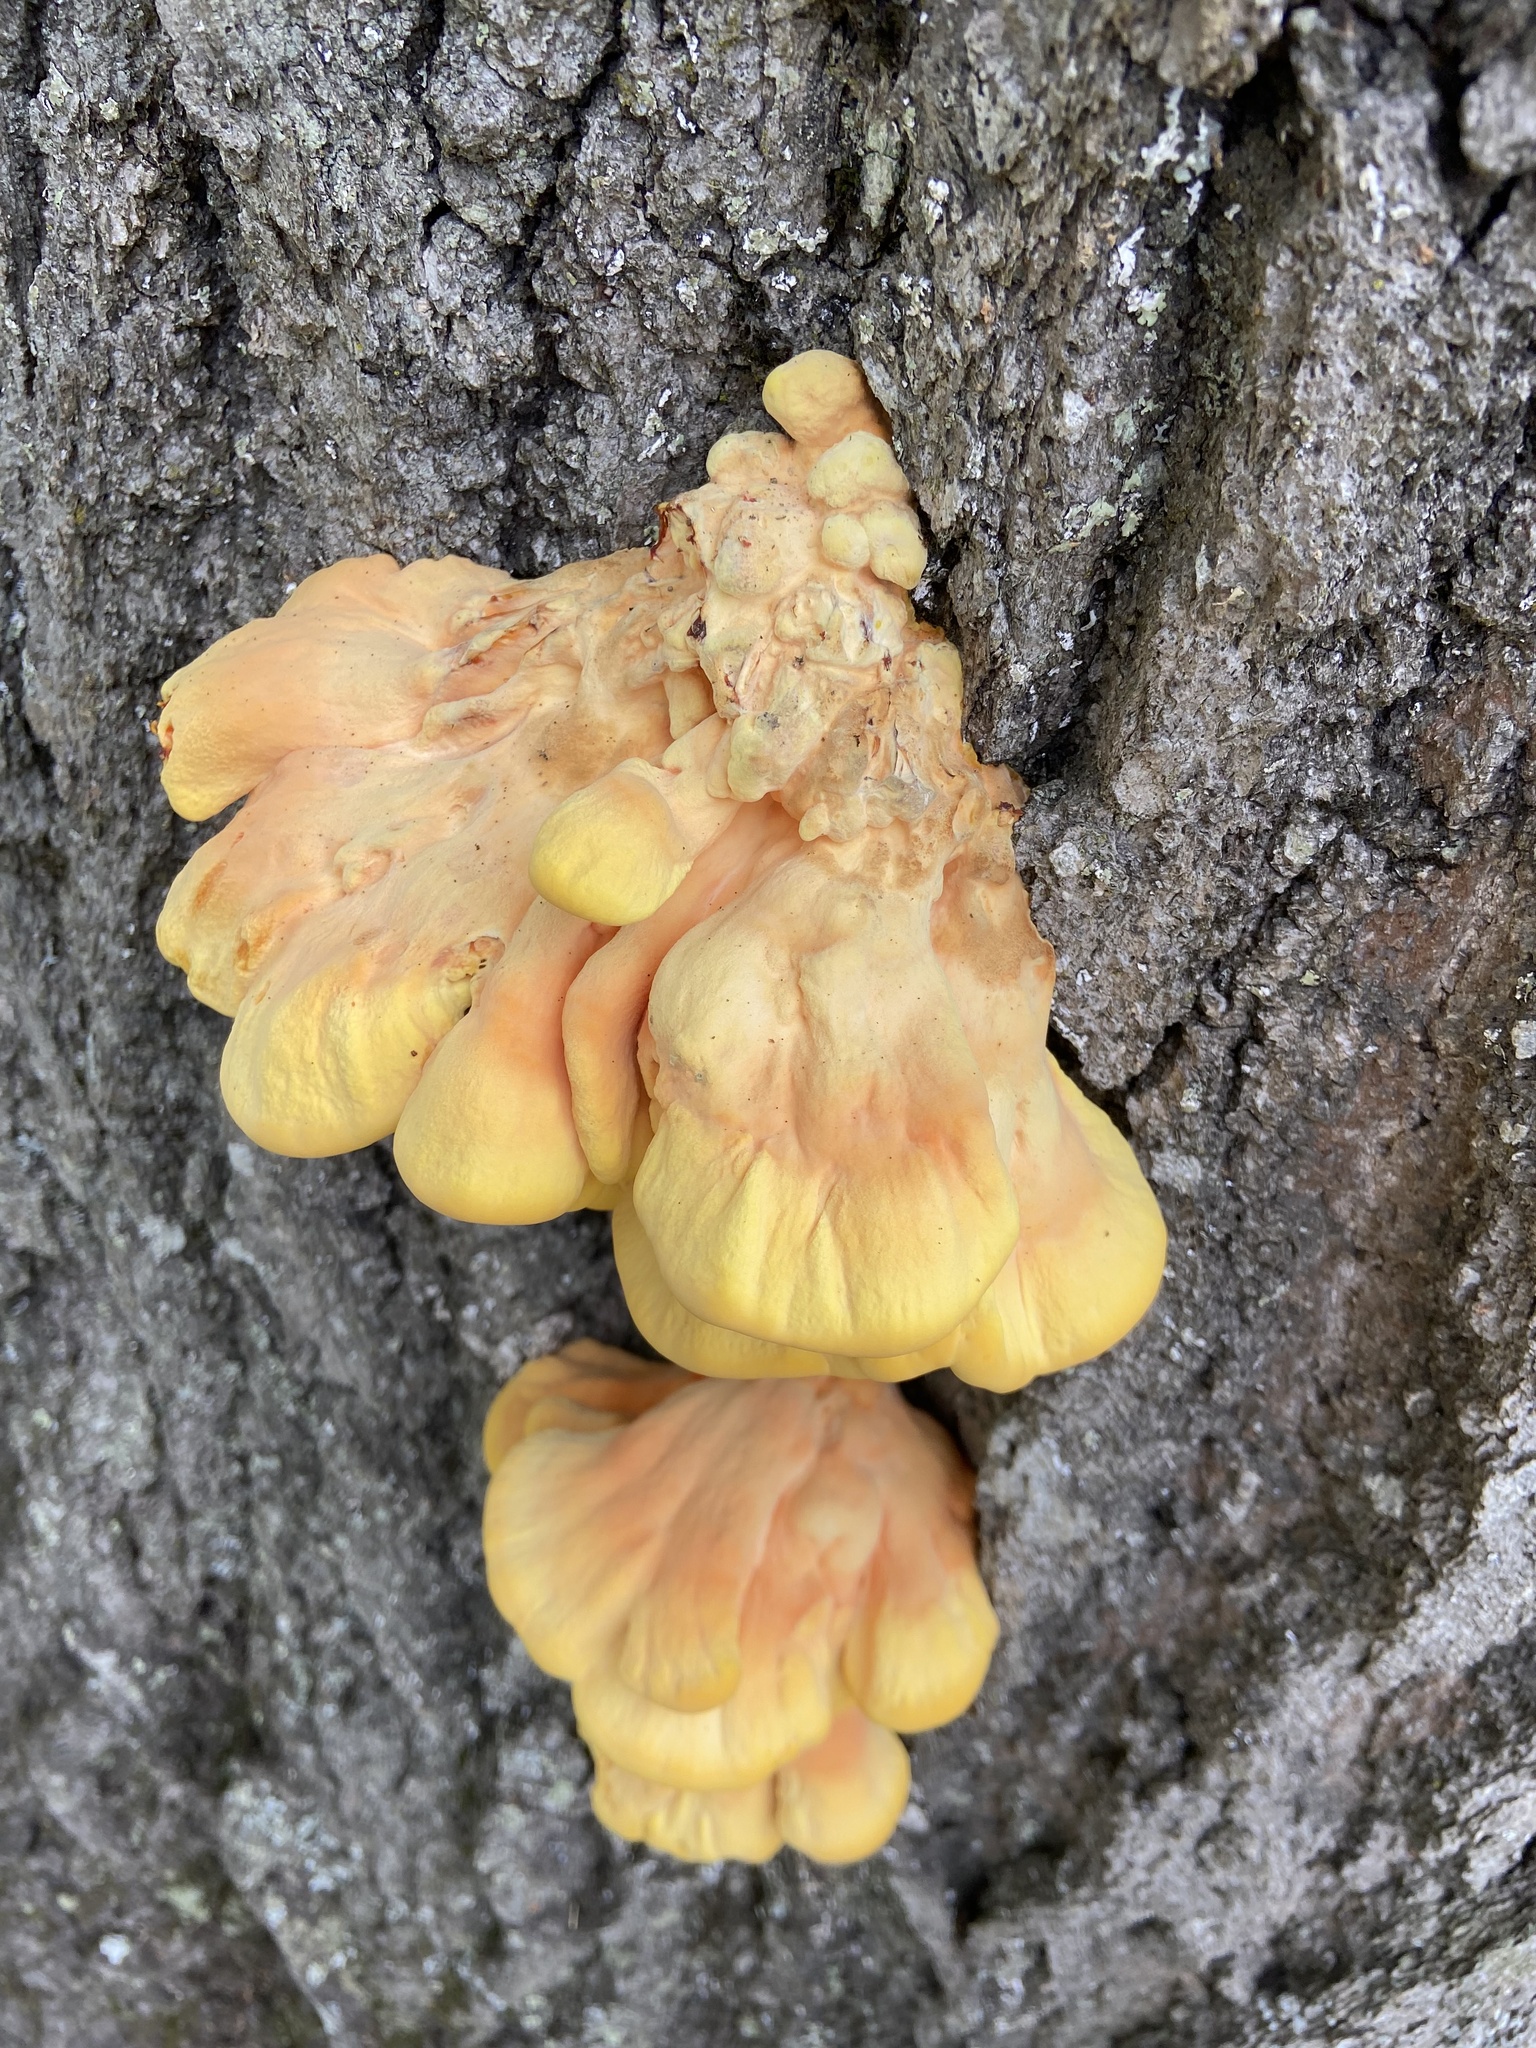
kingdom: Fungi
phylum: Basidiomycota
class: Agaricomycetes
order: Polyporales
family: Laetiporaceae
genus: Laetiporus
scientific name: Laetiporus sulphureus
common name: Chicken of the woods
